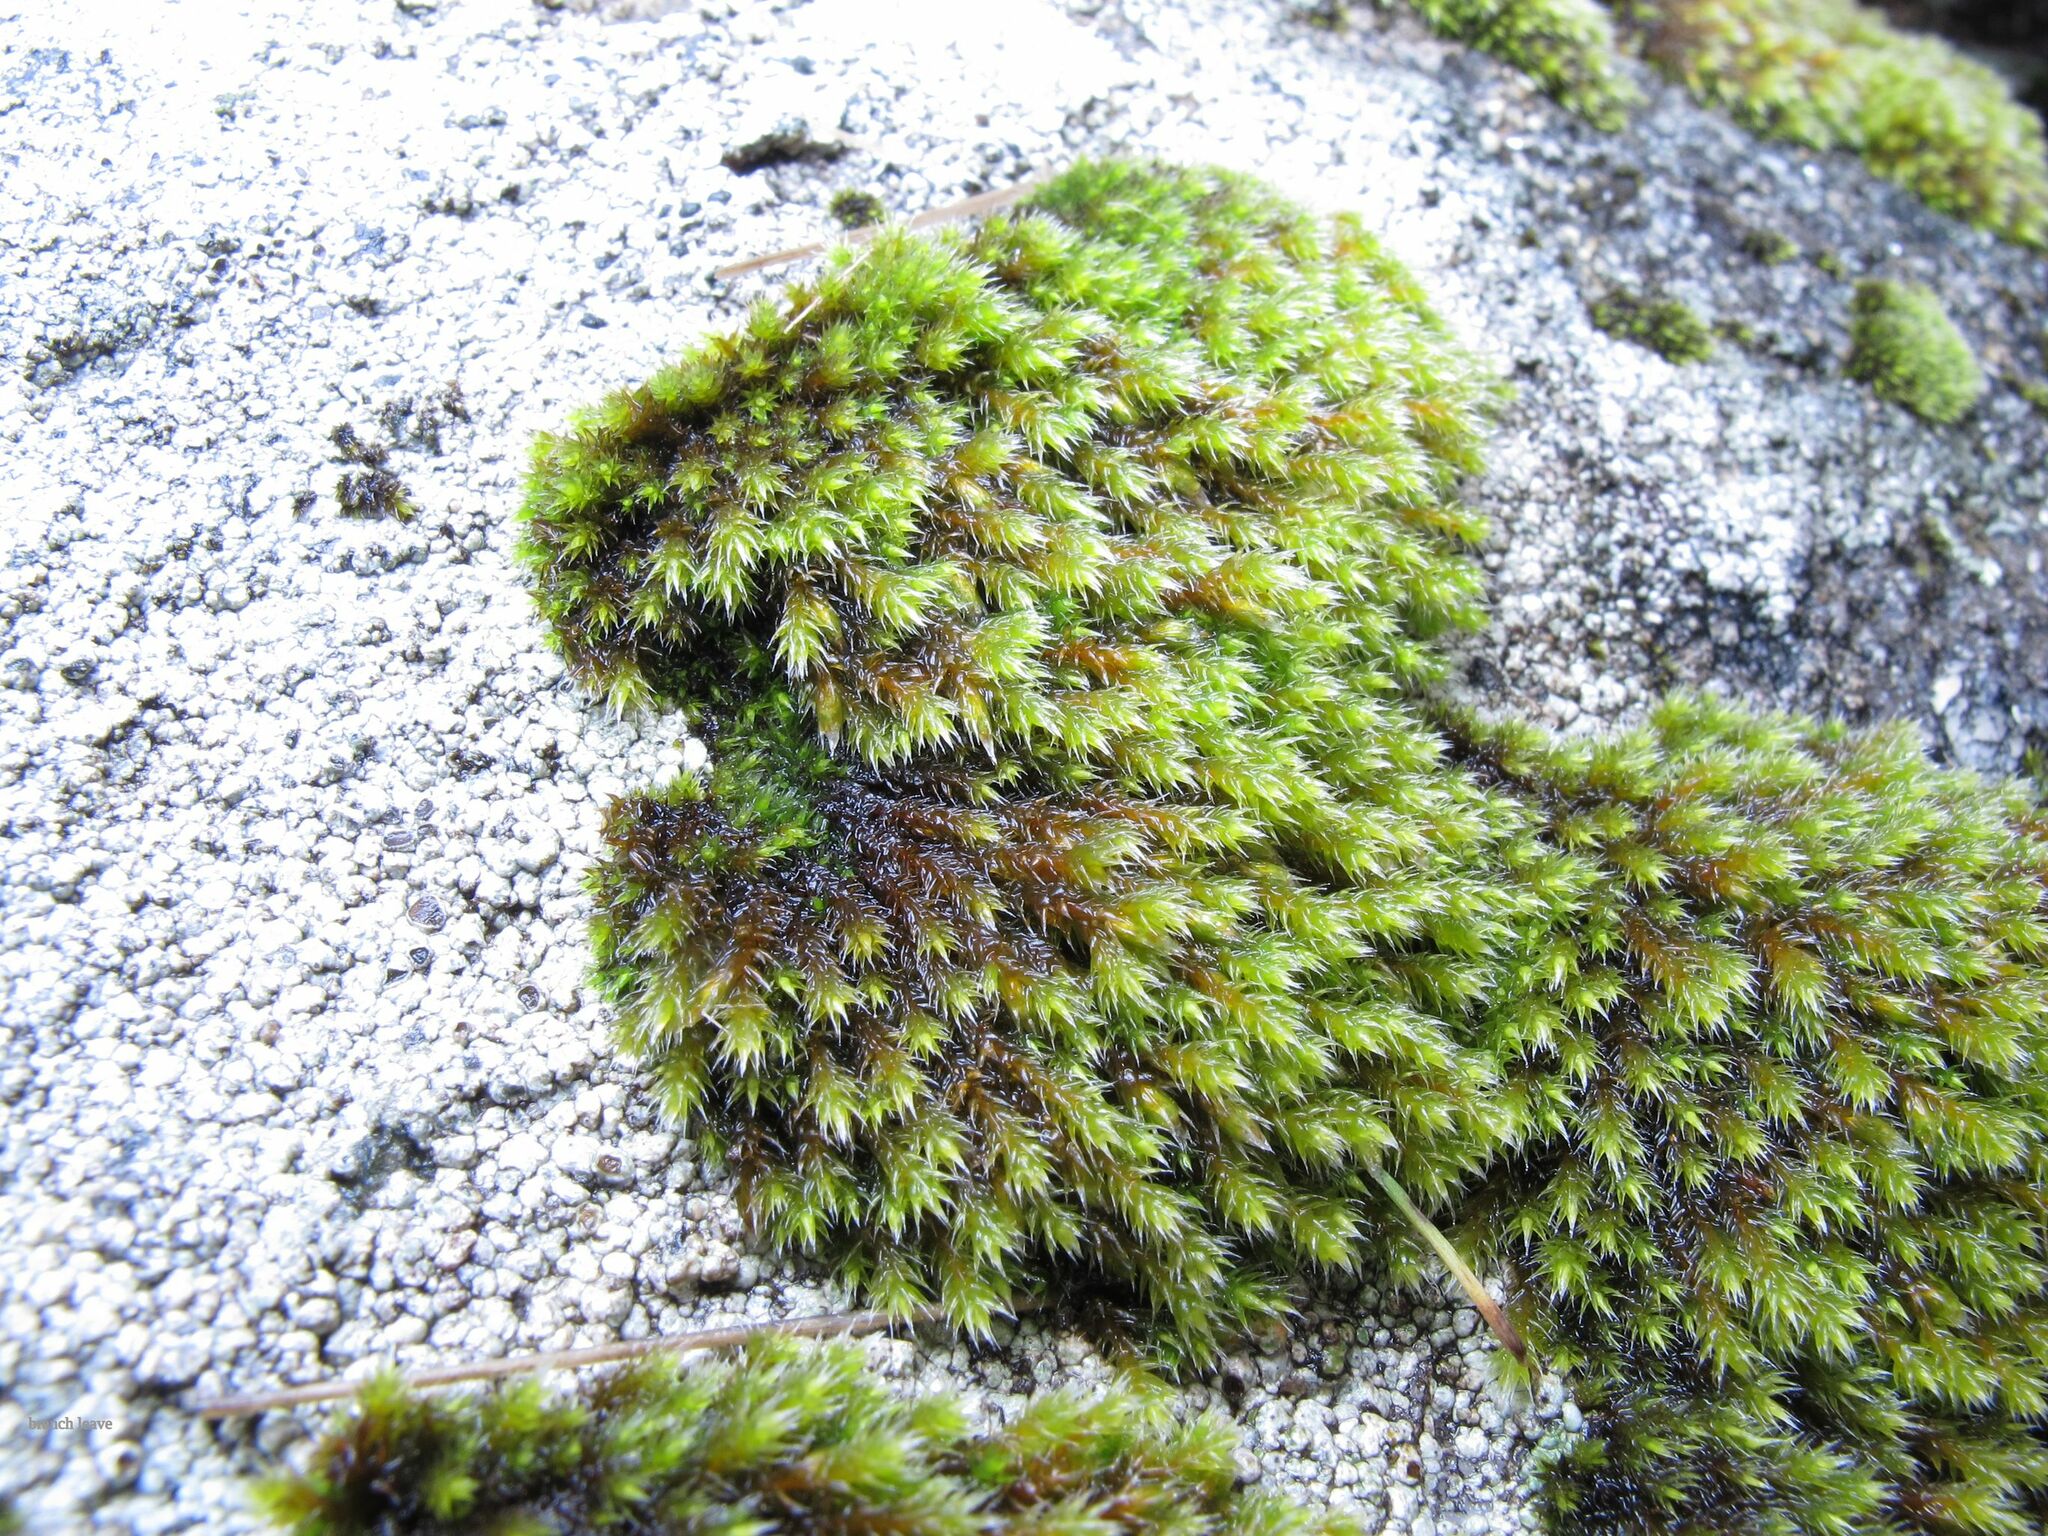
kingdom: Plantae
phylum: Bryophyta
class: Bryopsida
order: Hedwigiales
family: Hedwigiaceae
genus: Hedwigia
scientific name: Hedwigia emodica
